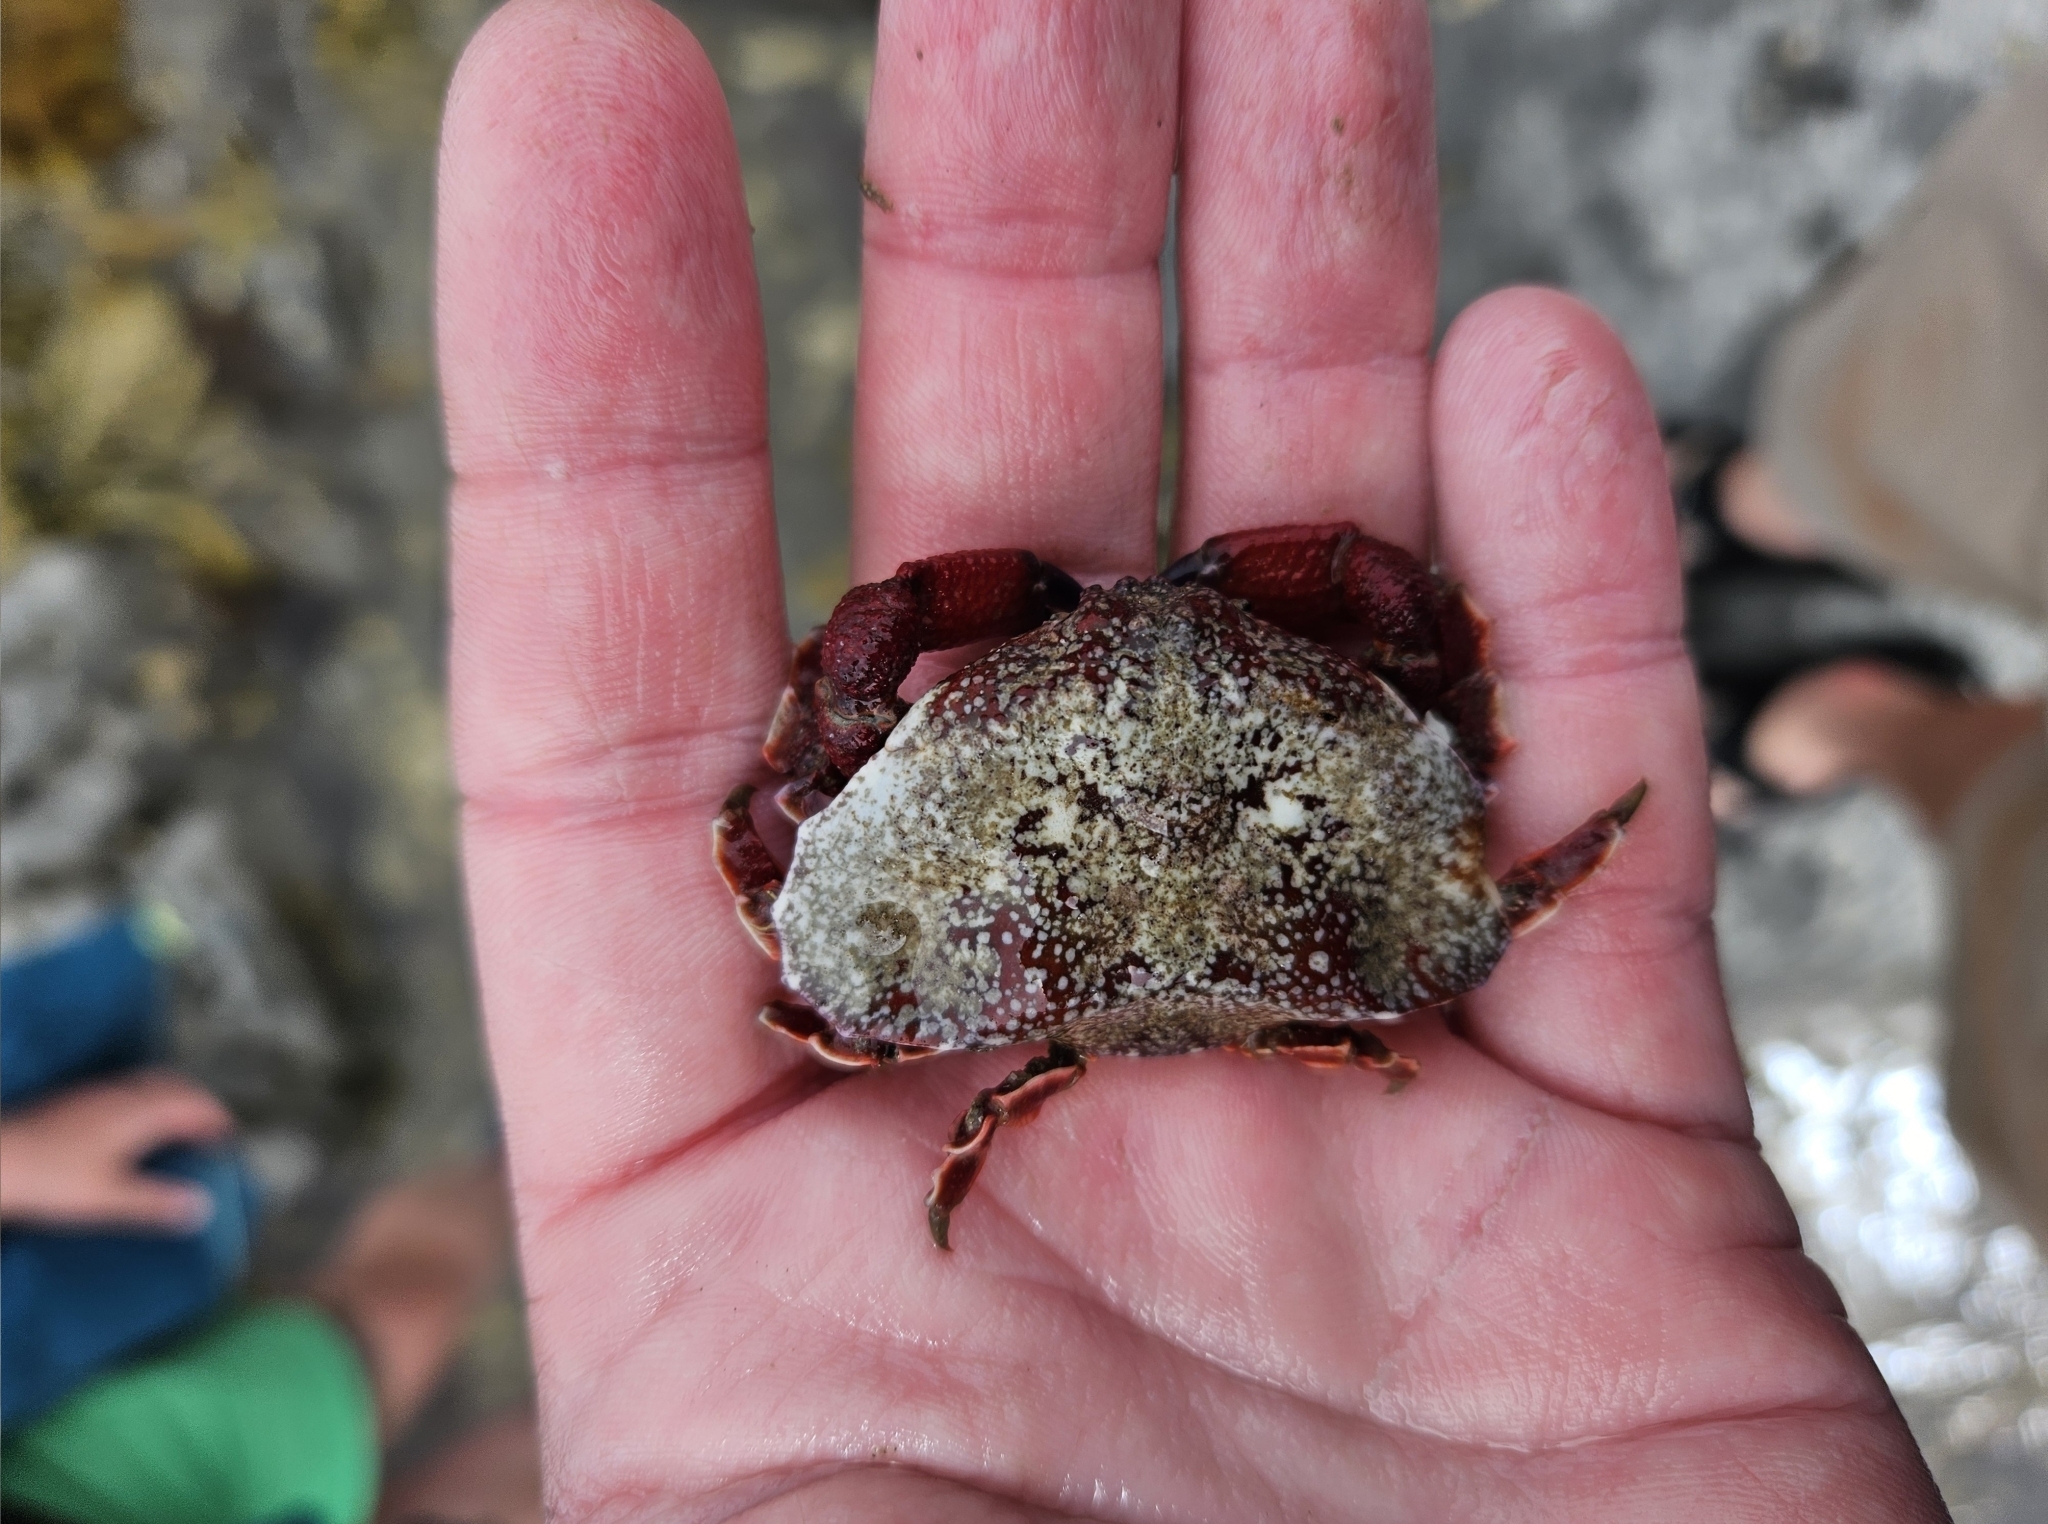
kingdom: Animalia
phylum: Arthropoda
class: Malacostraca
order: Decapoda
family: Majidae
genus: Eurynolambrus
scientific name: Eurynolambrus australis
